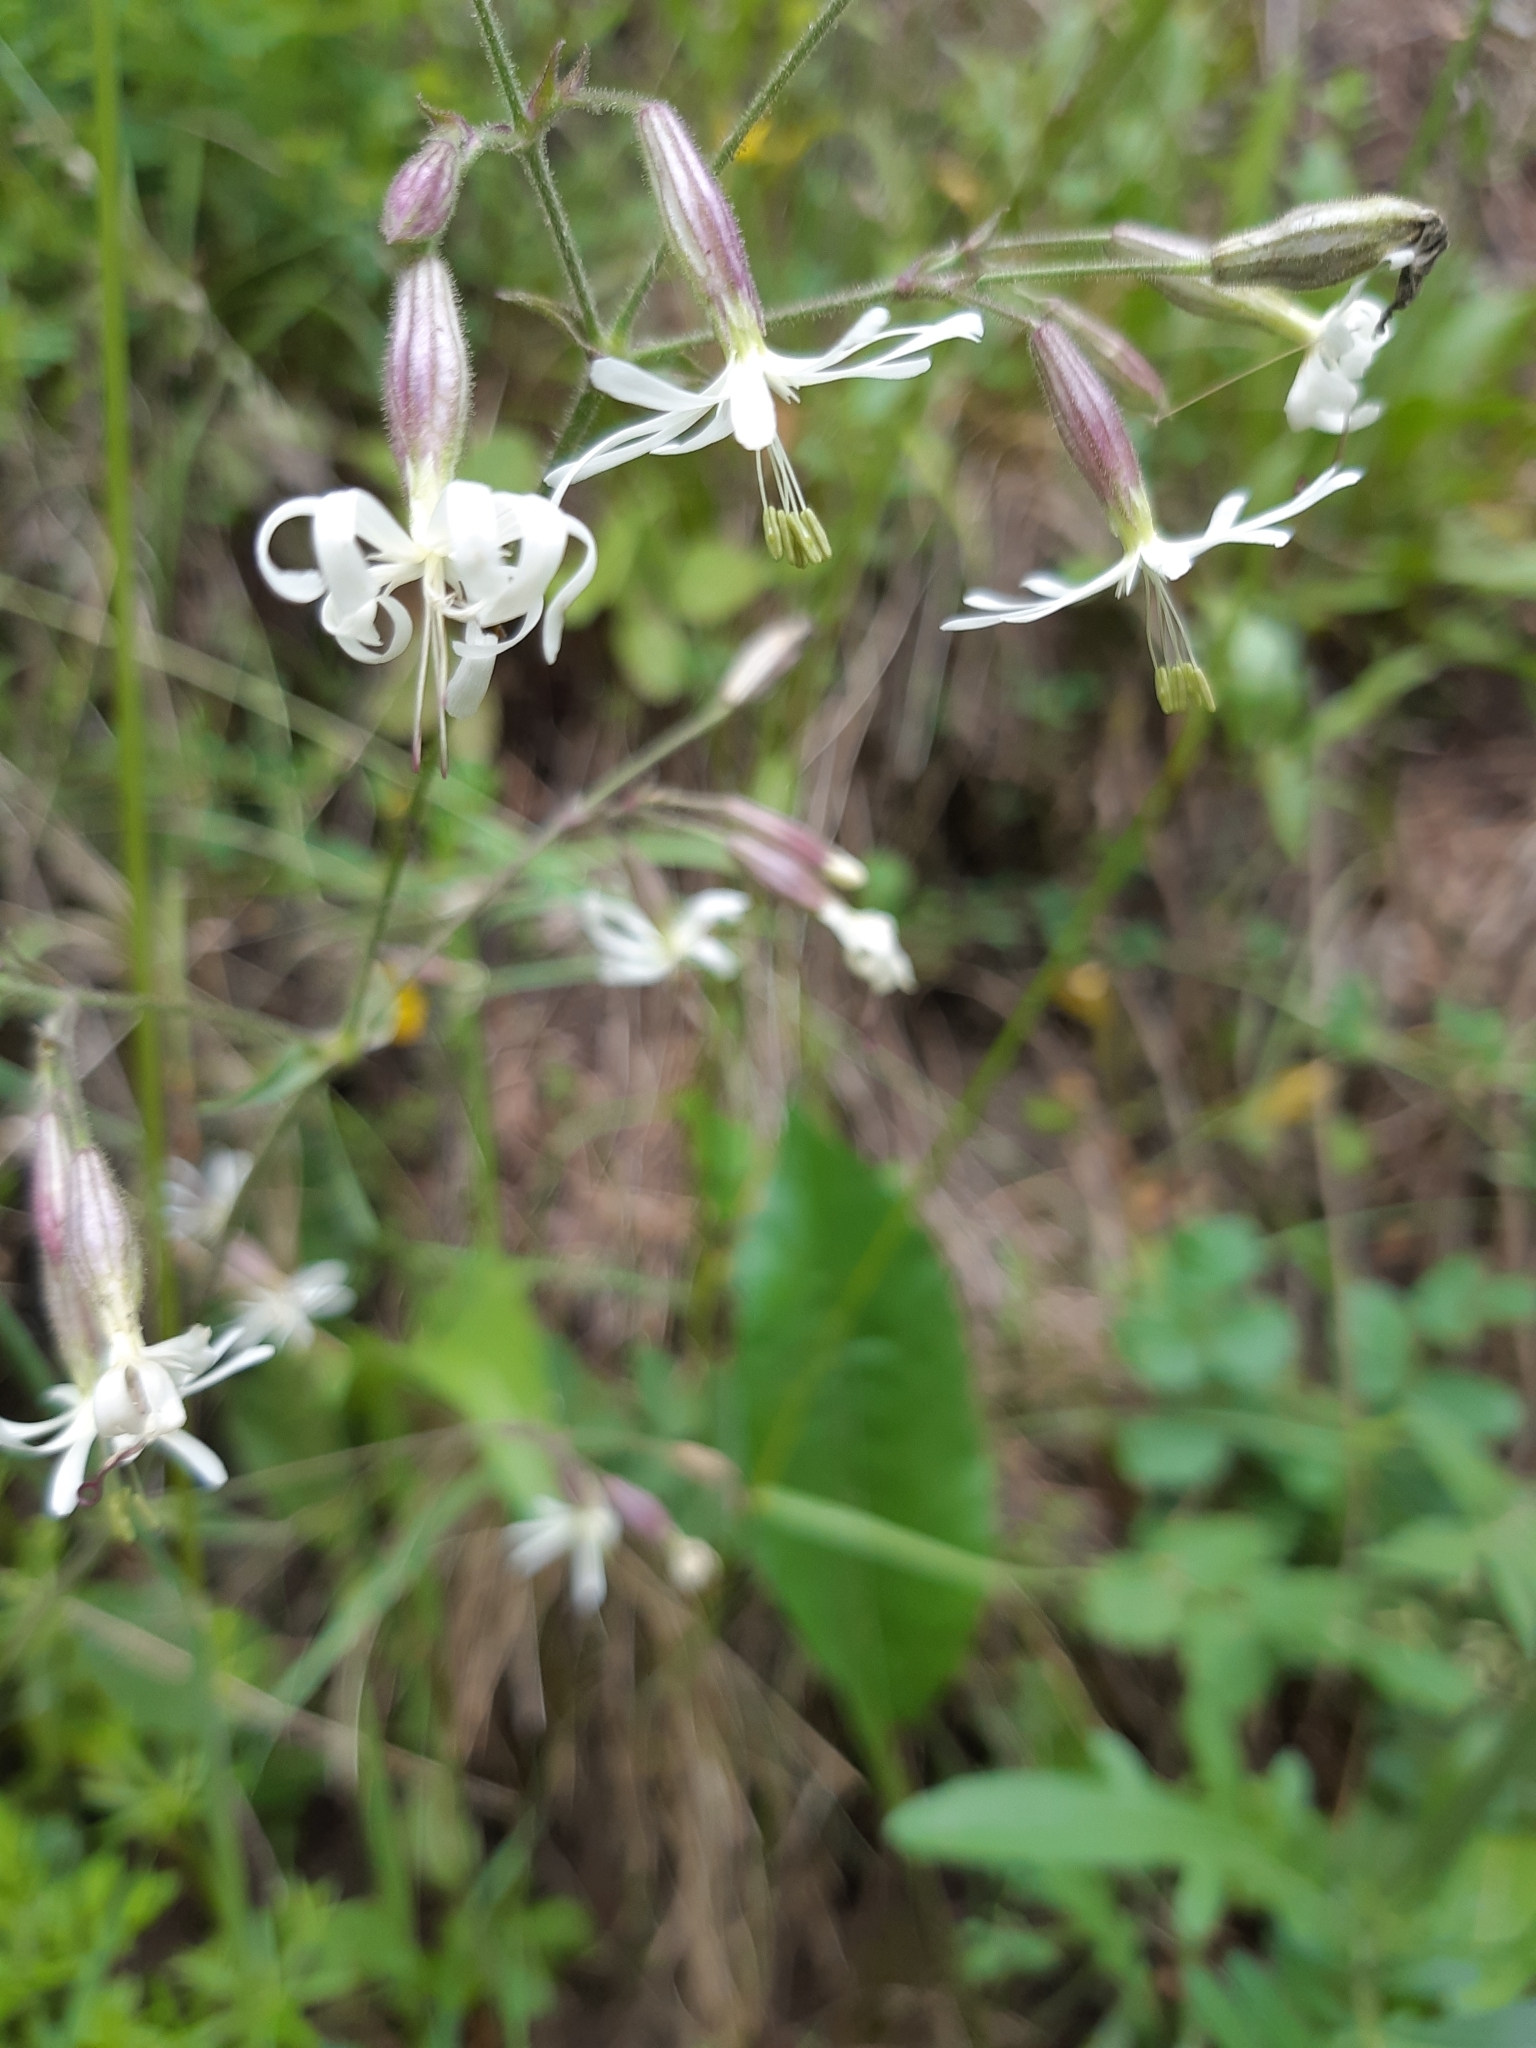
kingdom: Plantae
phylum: Tracheophyta
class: Magnoliopsida
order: Caryophyllales
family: Caryophyllaceae
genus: Silene
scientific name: Silene nutans
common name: Nottingham catchfly
